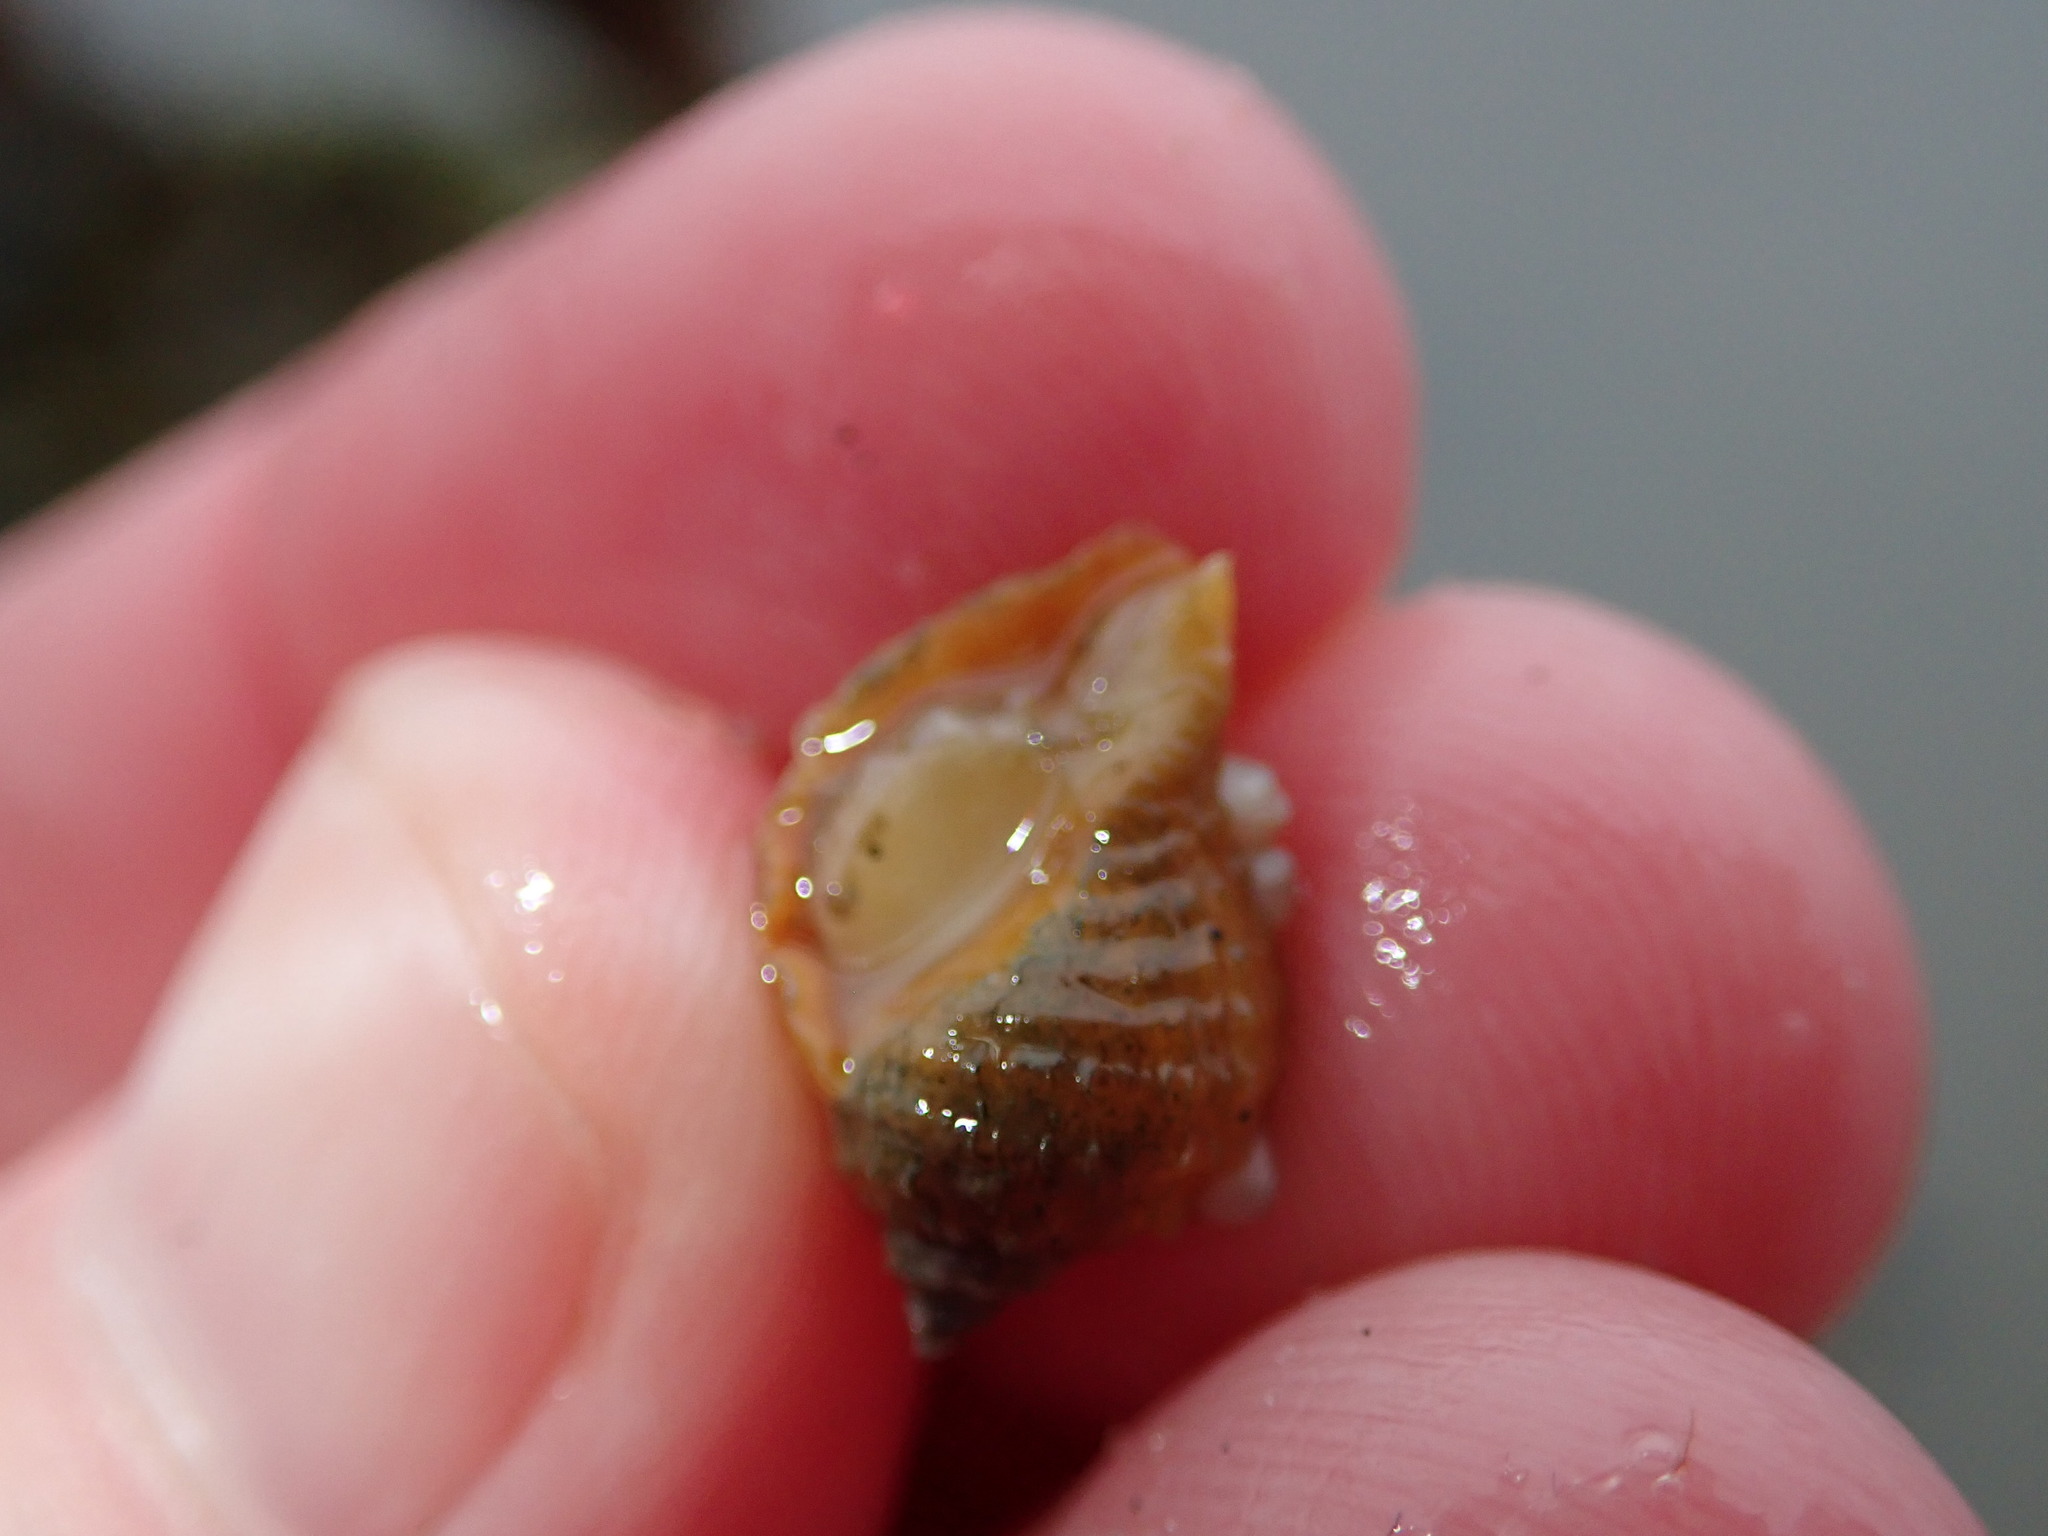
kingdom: Animalia
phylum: Mollusca
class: Gastropoda
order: Neogastropoda
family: Muricidae
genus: Nucella
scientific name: Nucella lapillus
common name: Dog whelk
